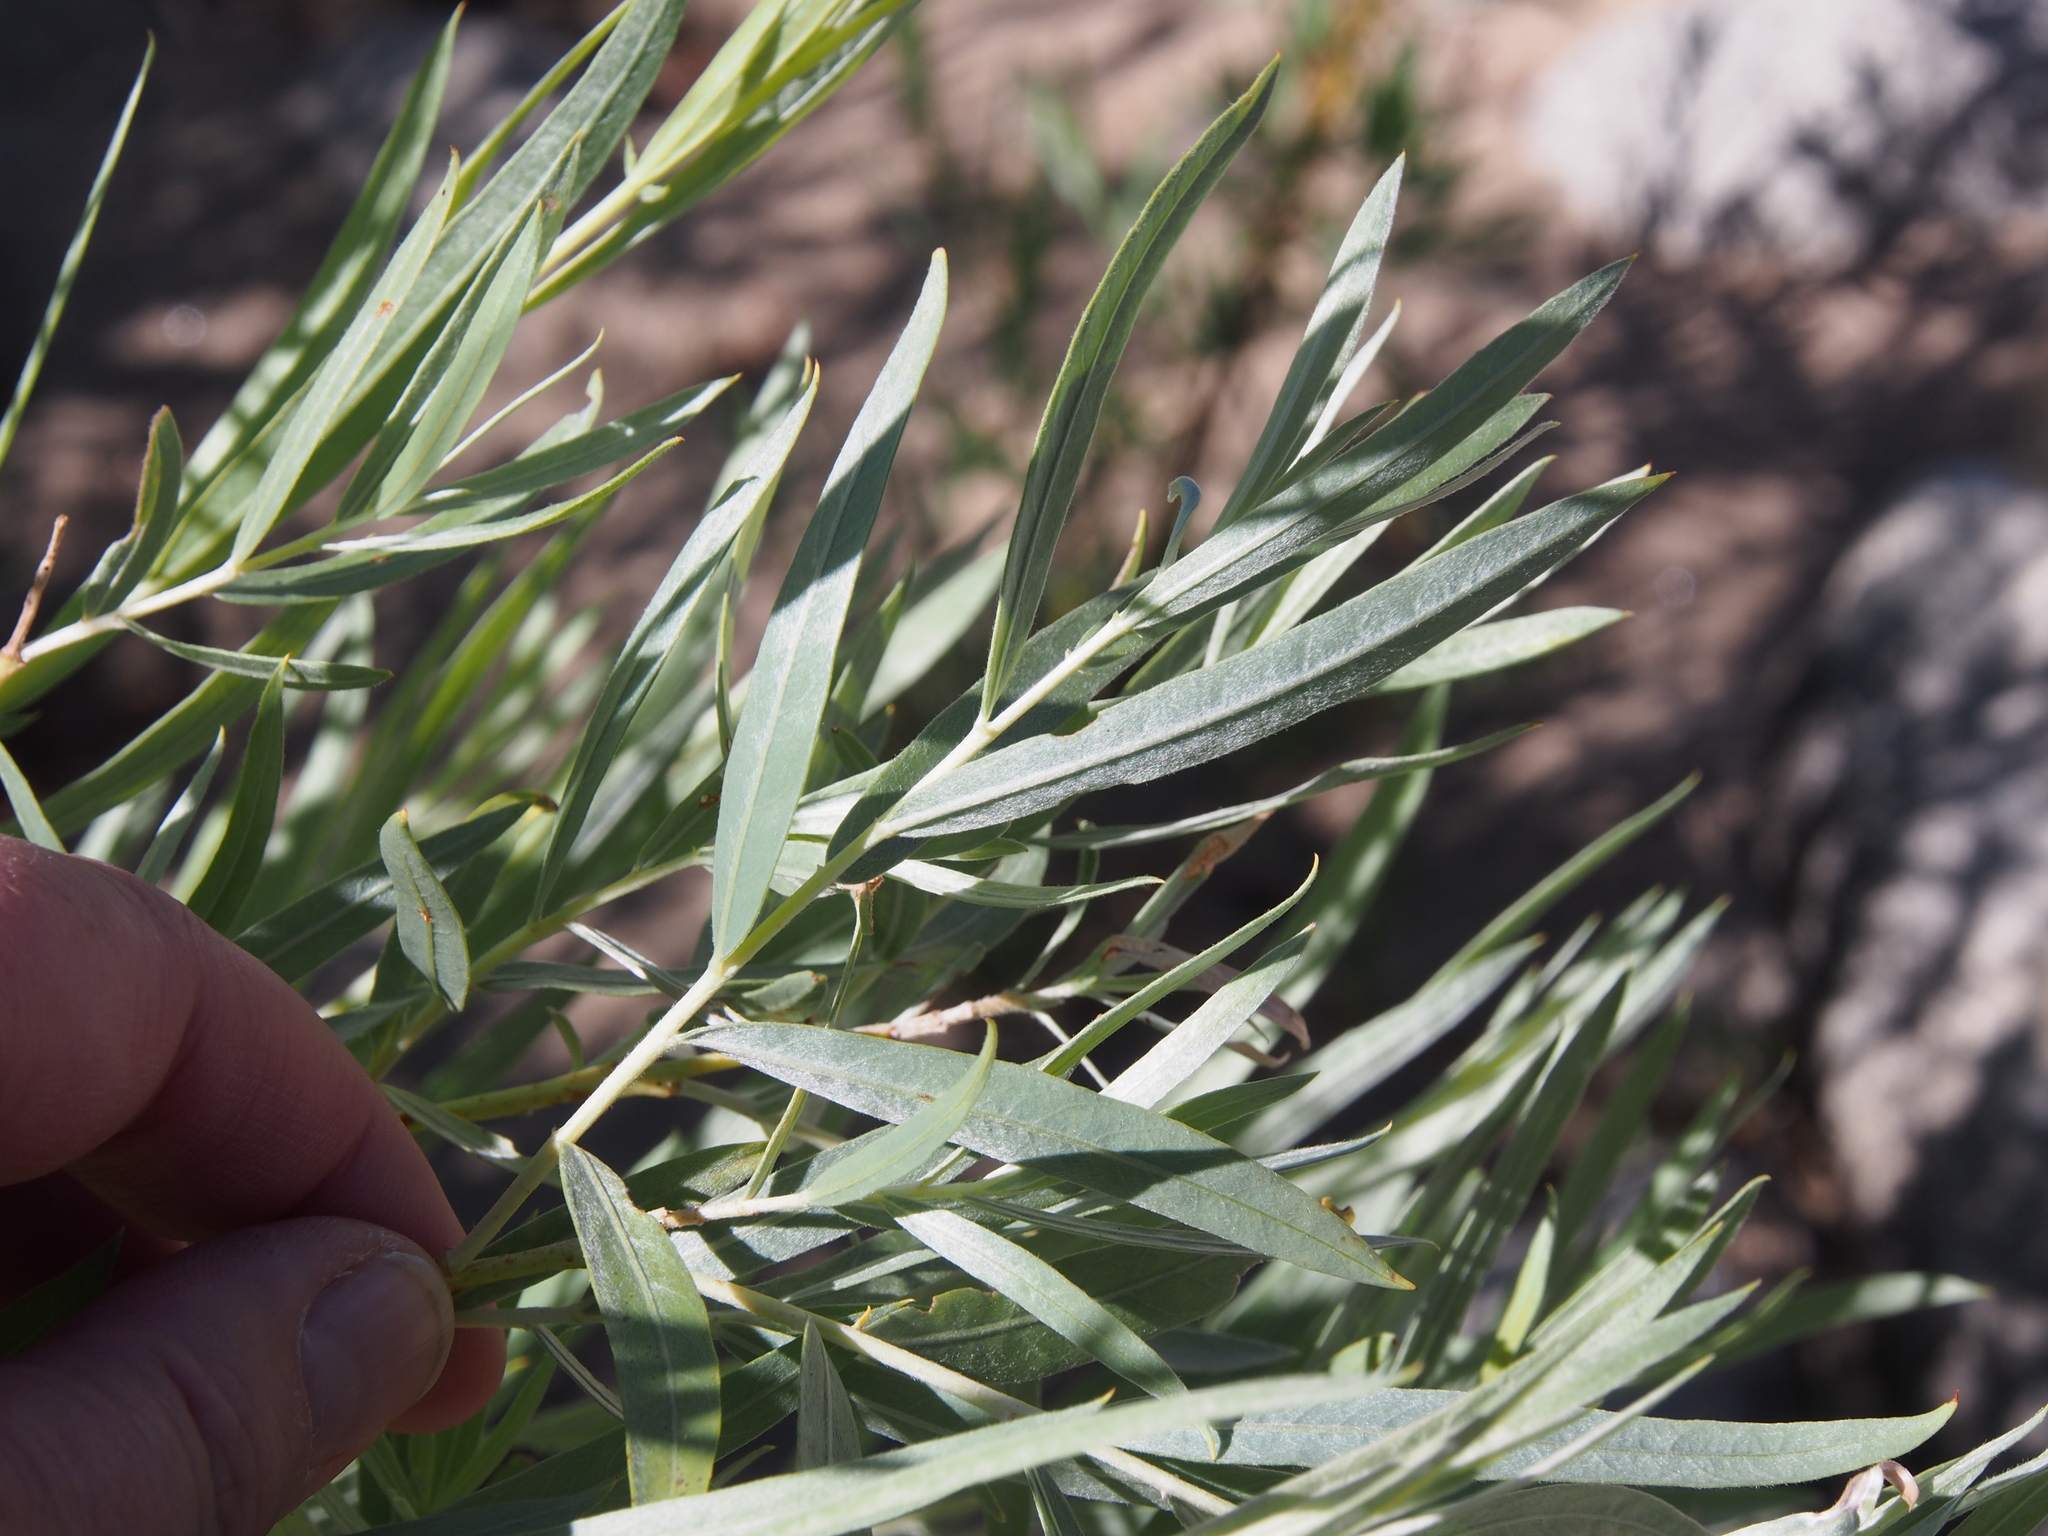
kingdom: Plantae
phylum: Tracheophyta
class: Magnoliopsida
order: Malpighiales
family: Salicaceae
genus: Salix
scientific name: Salix exigua
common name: Coyote willow
